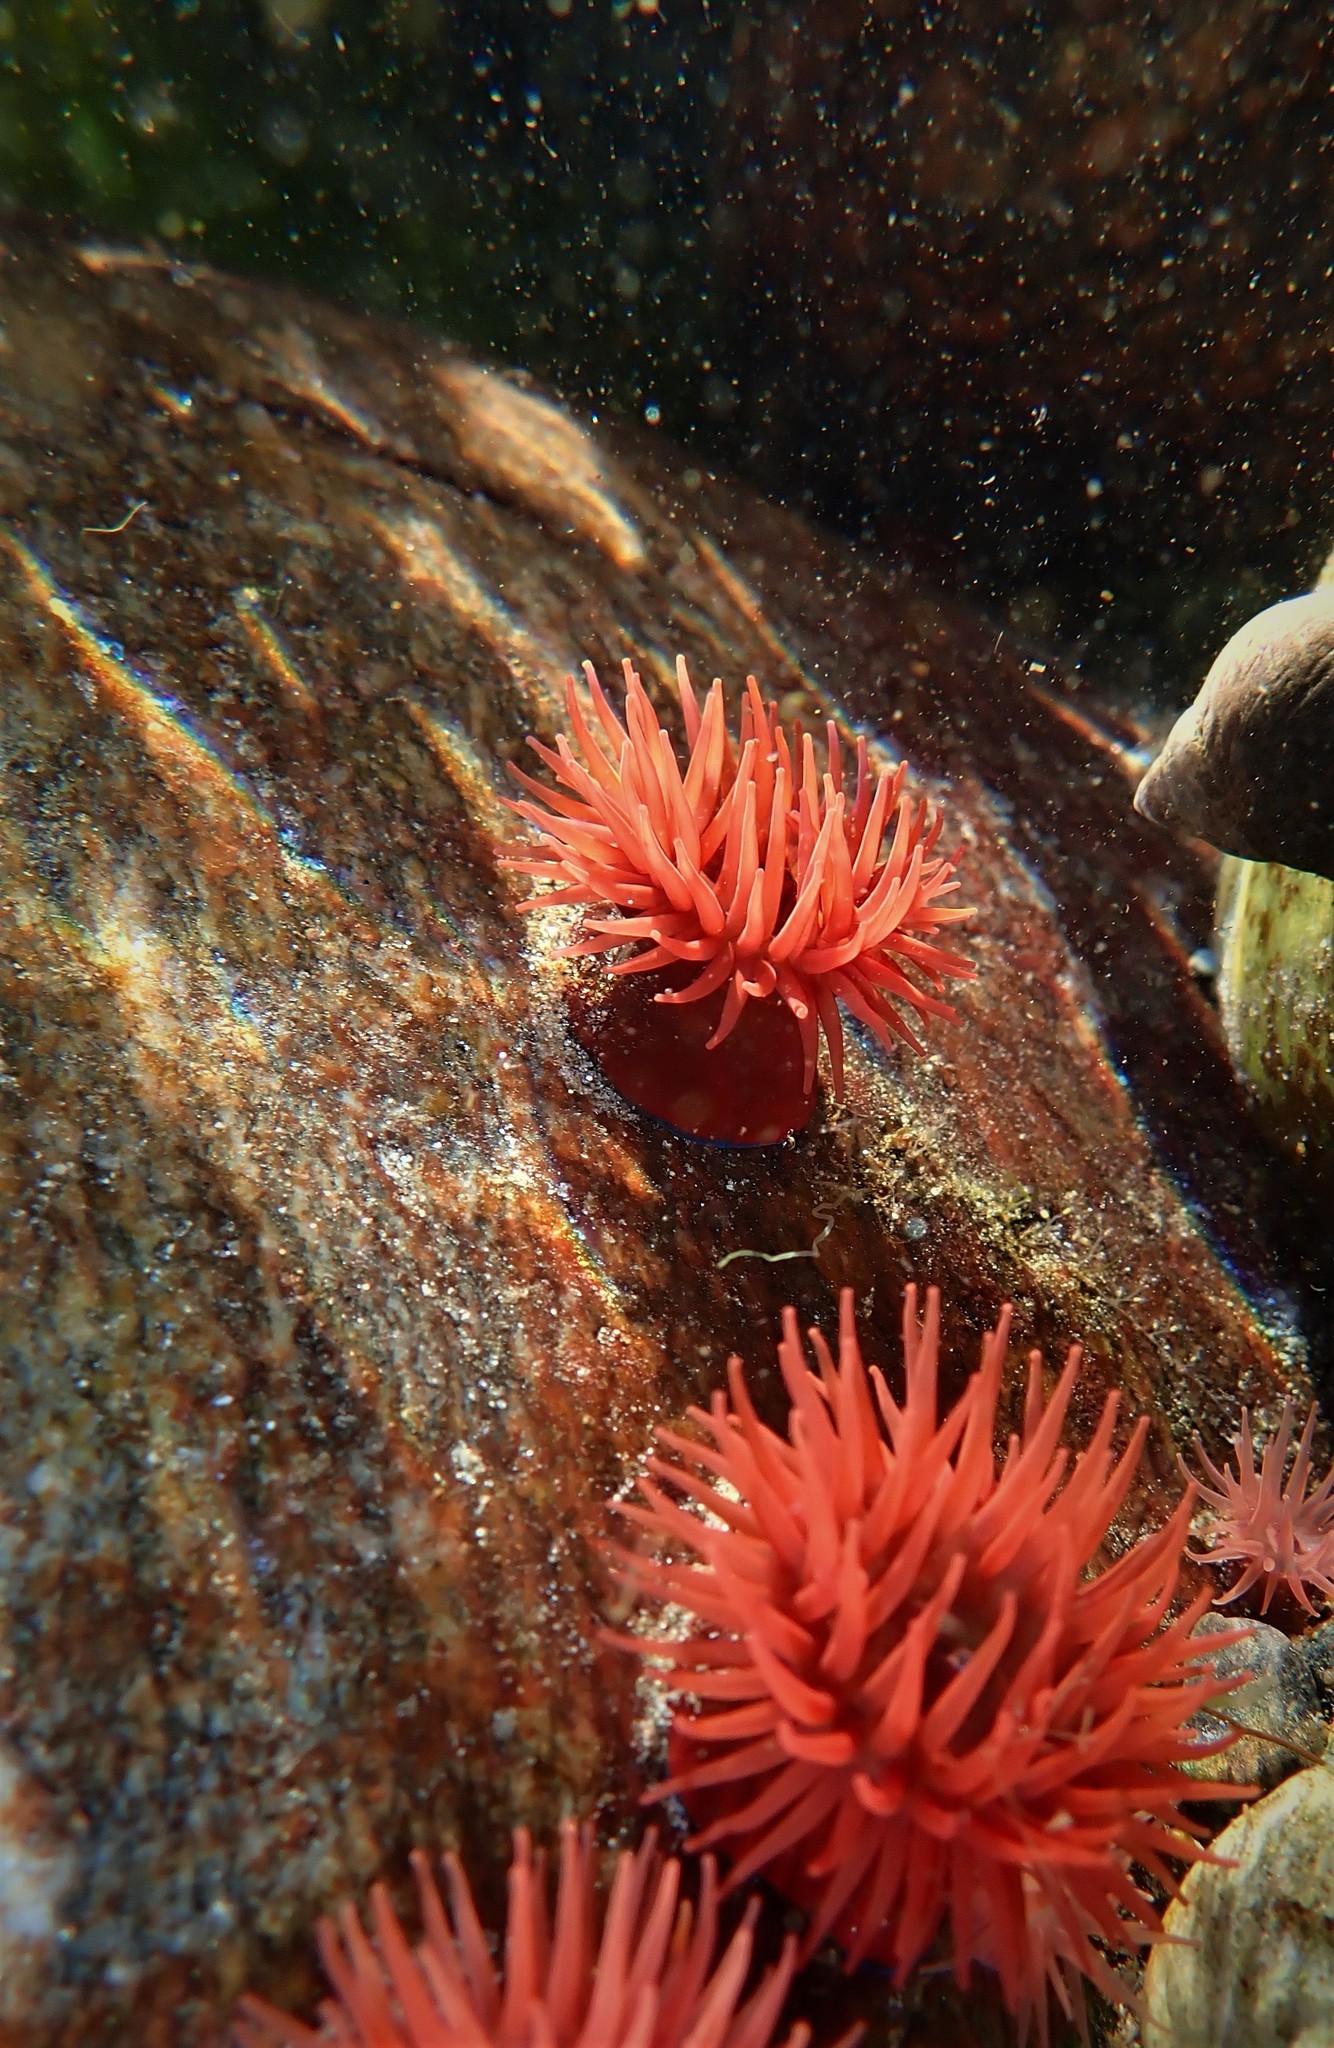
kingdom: Animalia
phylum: Cnidaria
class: Anthozoa
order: Actiniaria
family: Actiniidae
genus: Actinia
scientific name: Actinia equina
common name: Beadlet anemone
